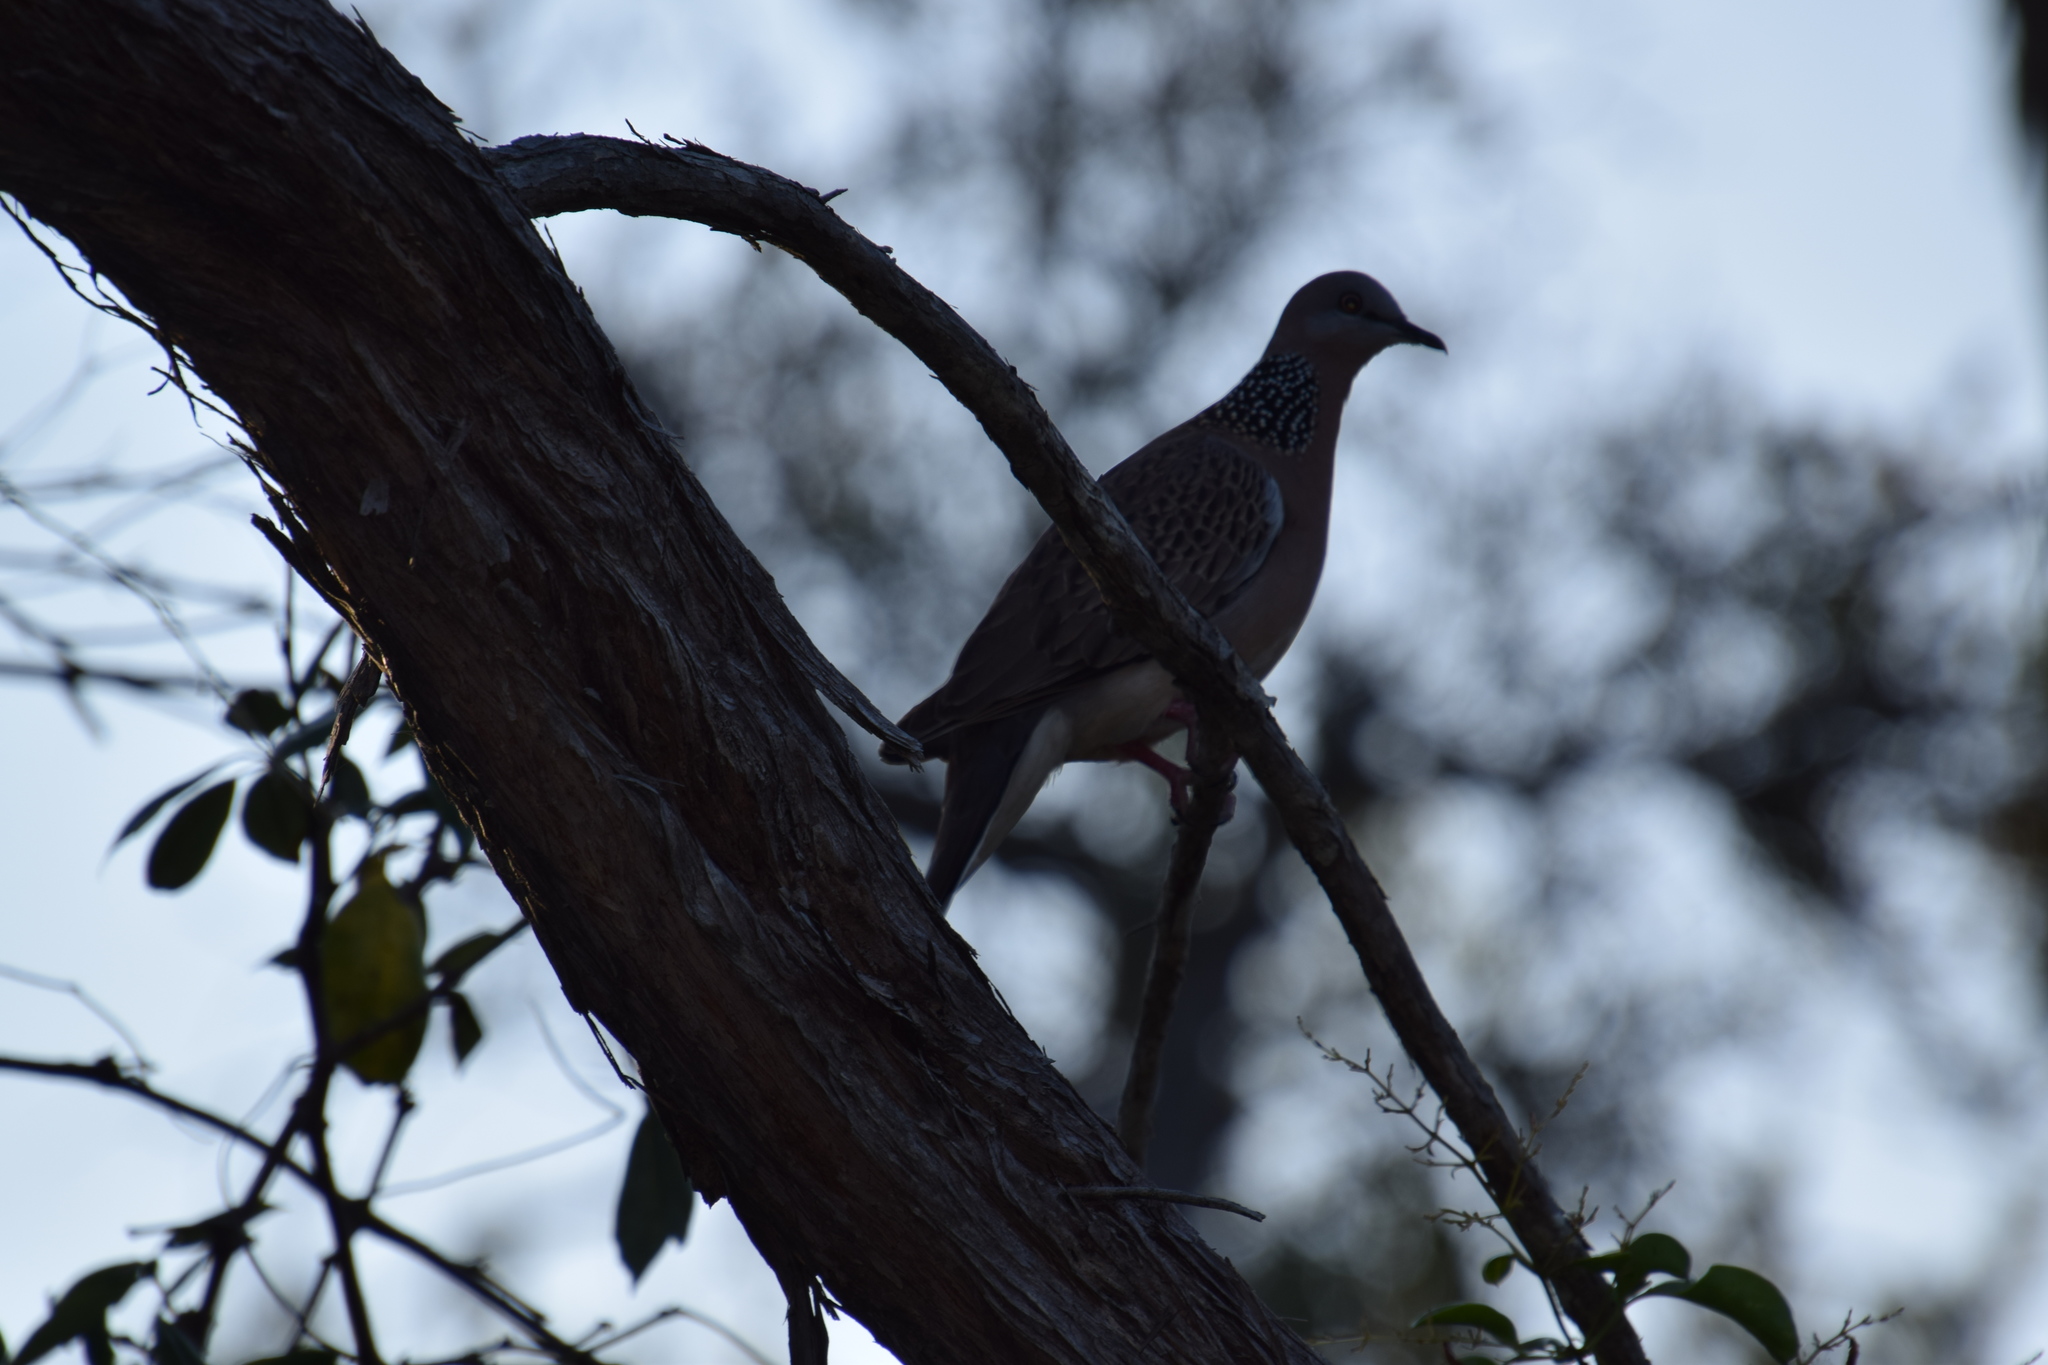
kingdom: Animalia
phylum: Chordata
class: Aves
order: Columbiformes
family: Columbidae
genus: Spilopelia
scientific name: Spilopelia chinensis
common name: Spotted dove
